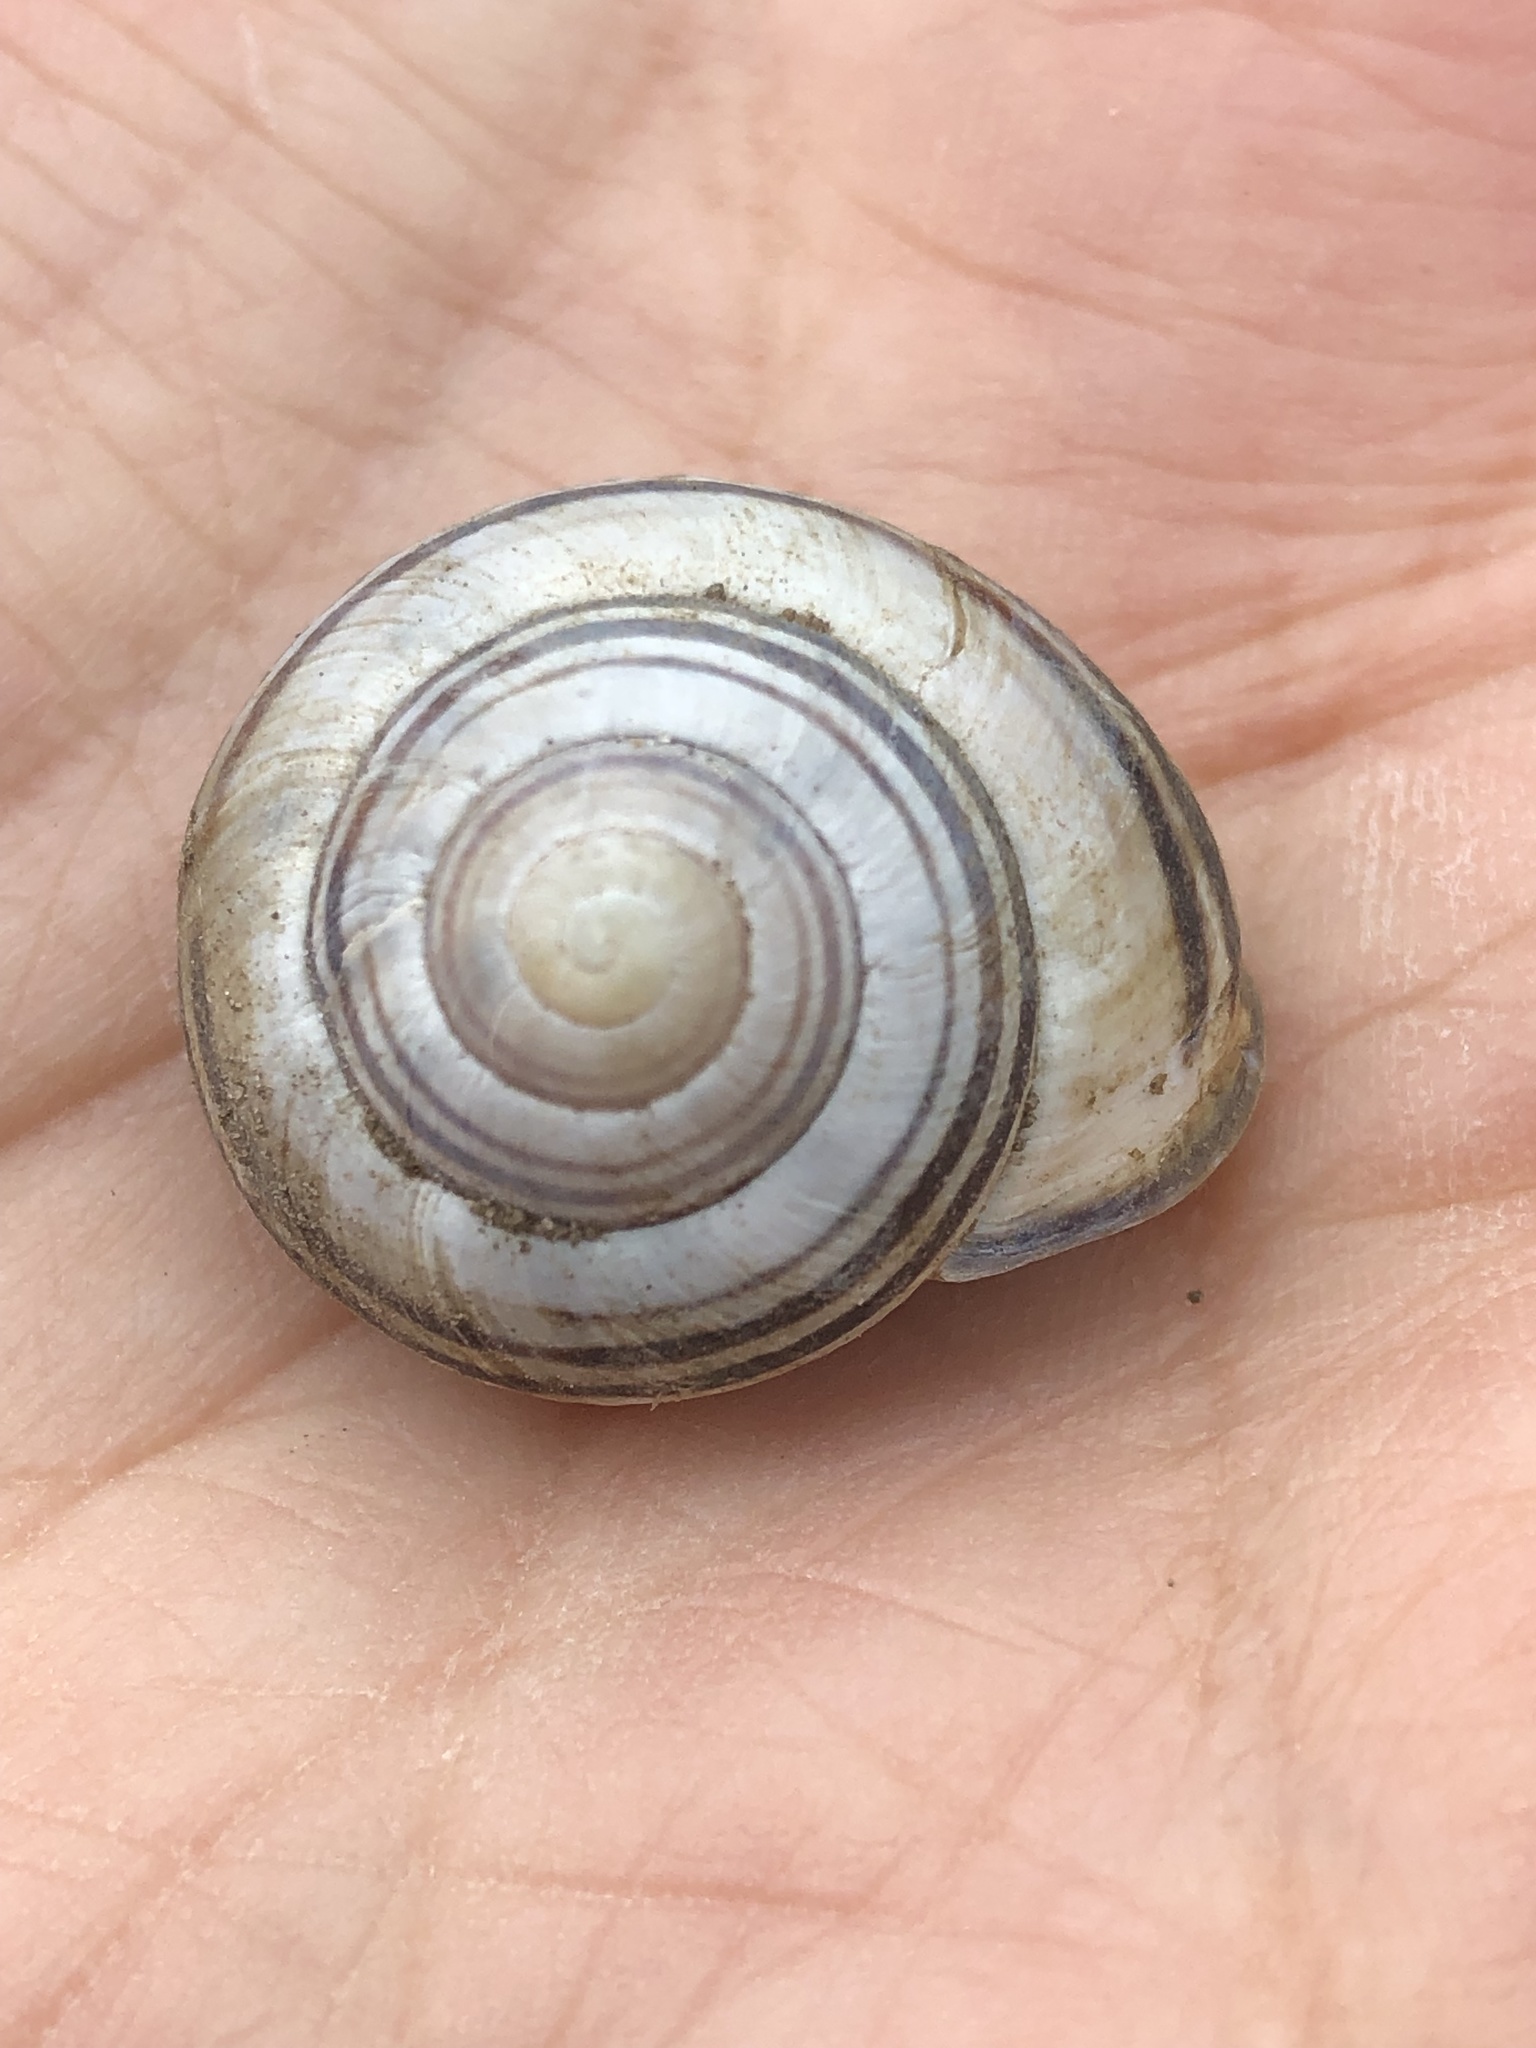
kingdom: Animalia
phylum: Mollusca
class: Gastropoda
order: Stylommatophora
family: Helicidae
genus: Cepaea
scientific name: Cepaea nemoralis
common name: Grovesnail
